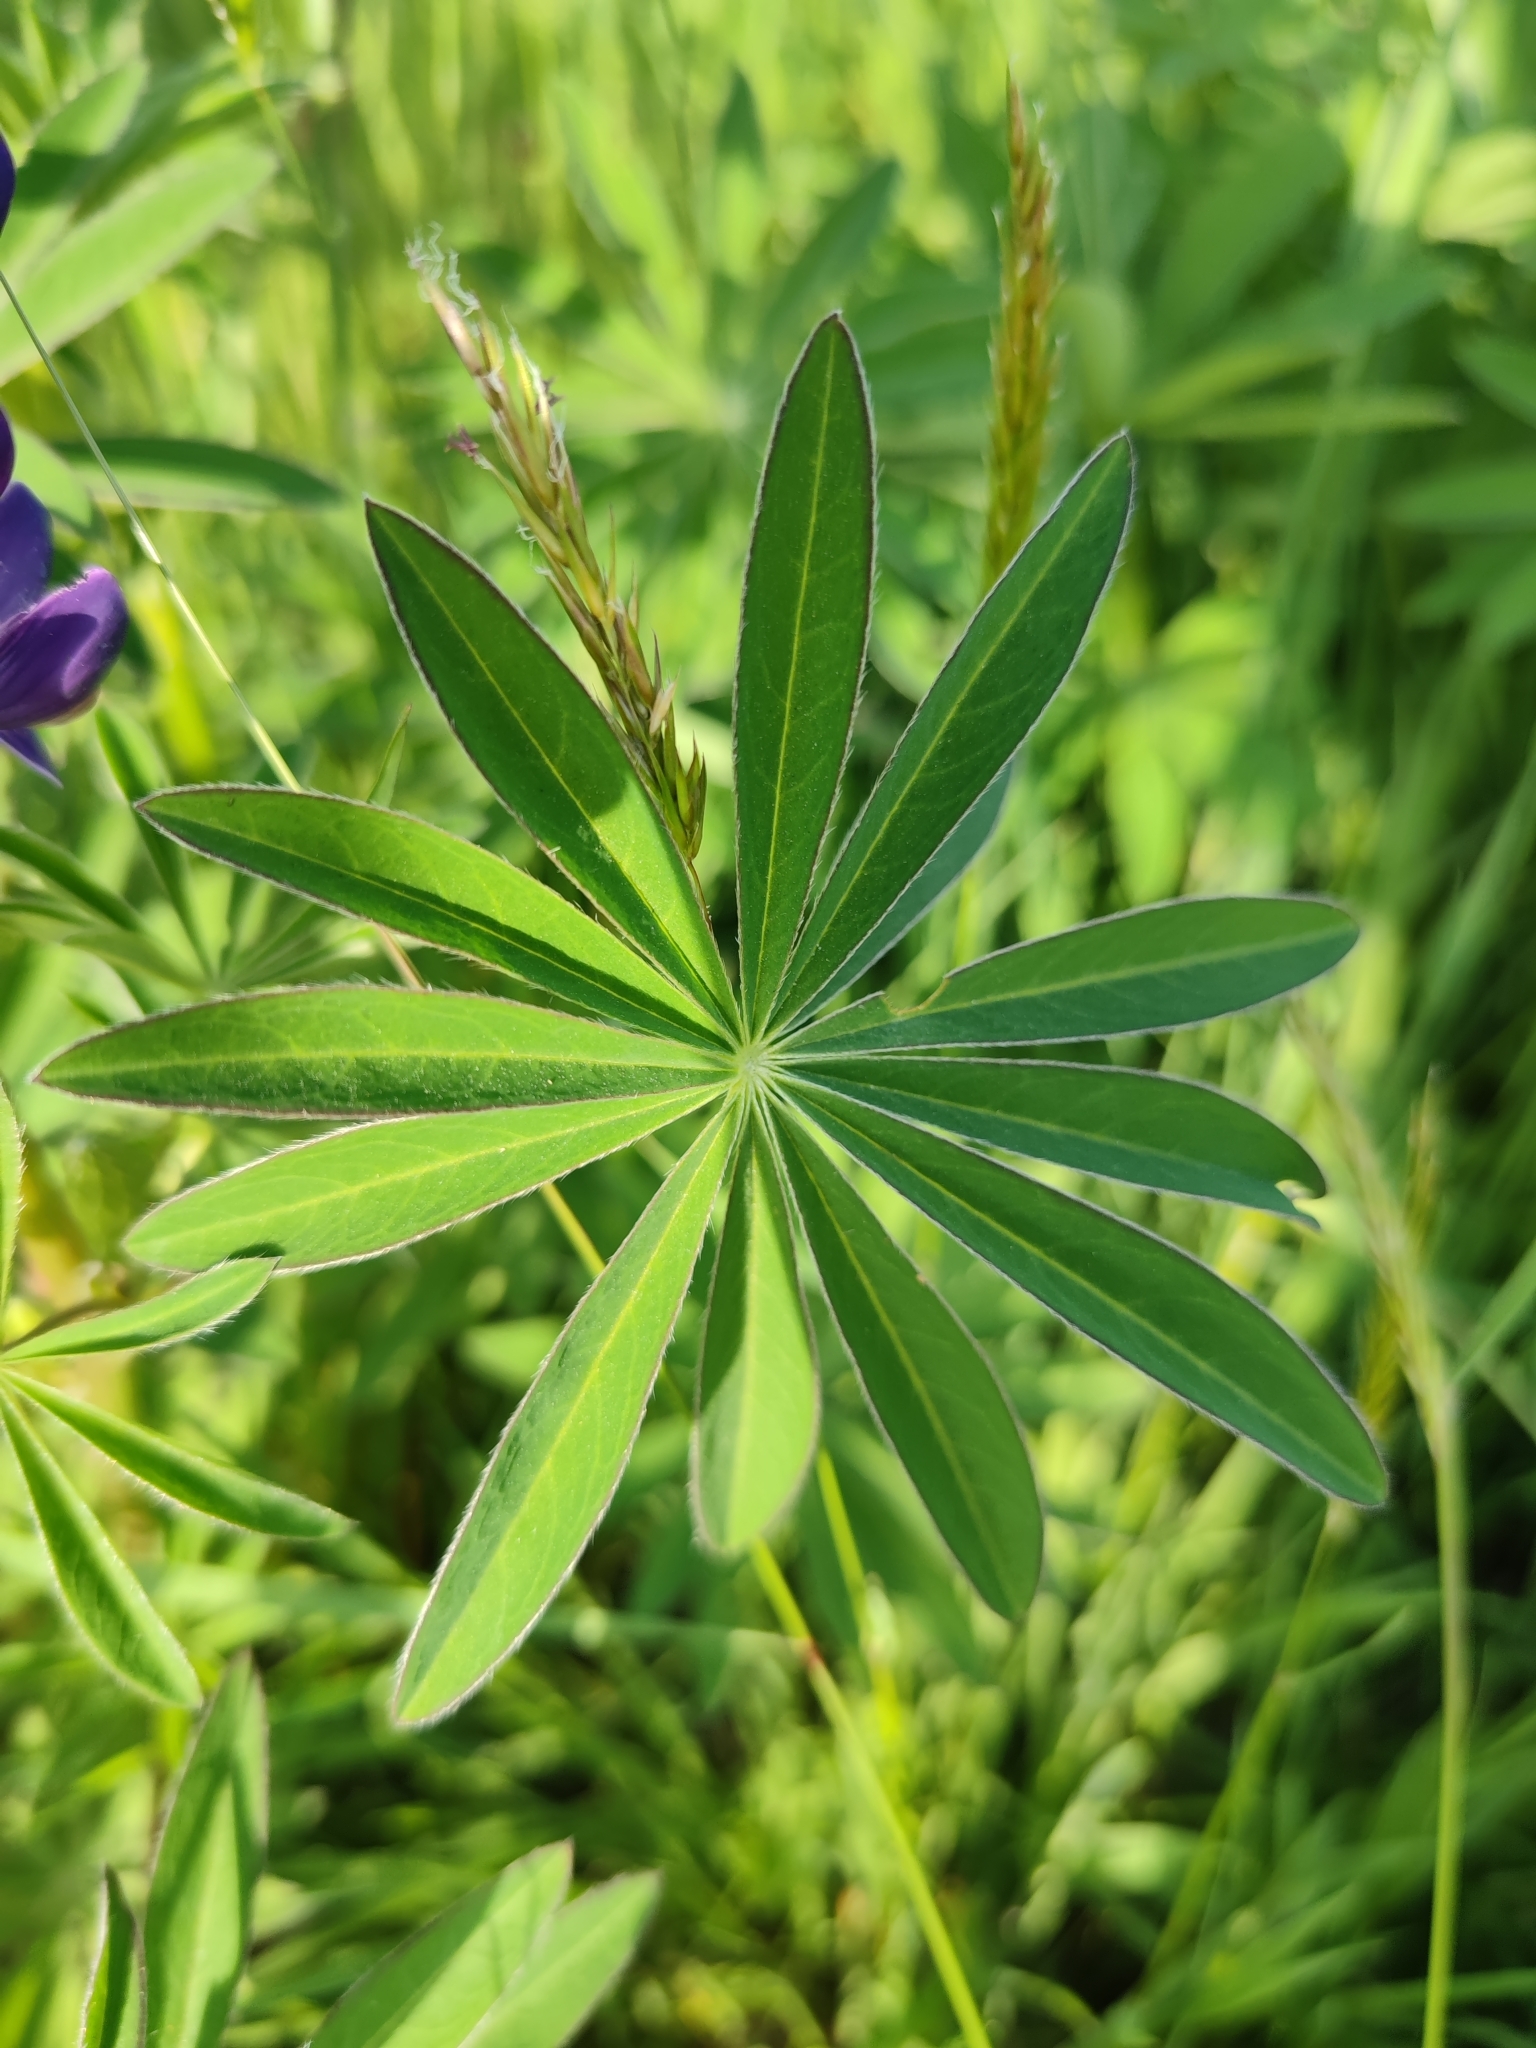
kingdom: Plantae
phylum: Tracheophyta
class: Magnoliopsida
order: Fabales
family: Fabaceae
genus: Lupinus
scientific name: Lupinus polyphyllus
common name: Garden lupin
